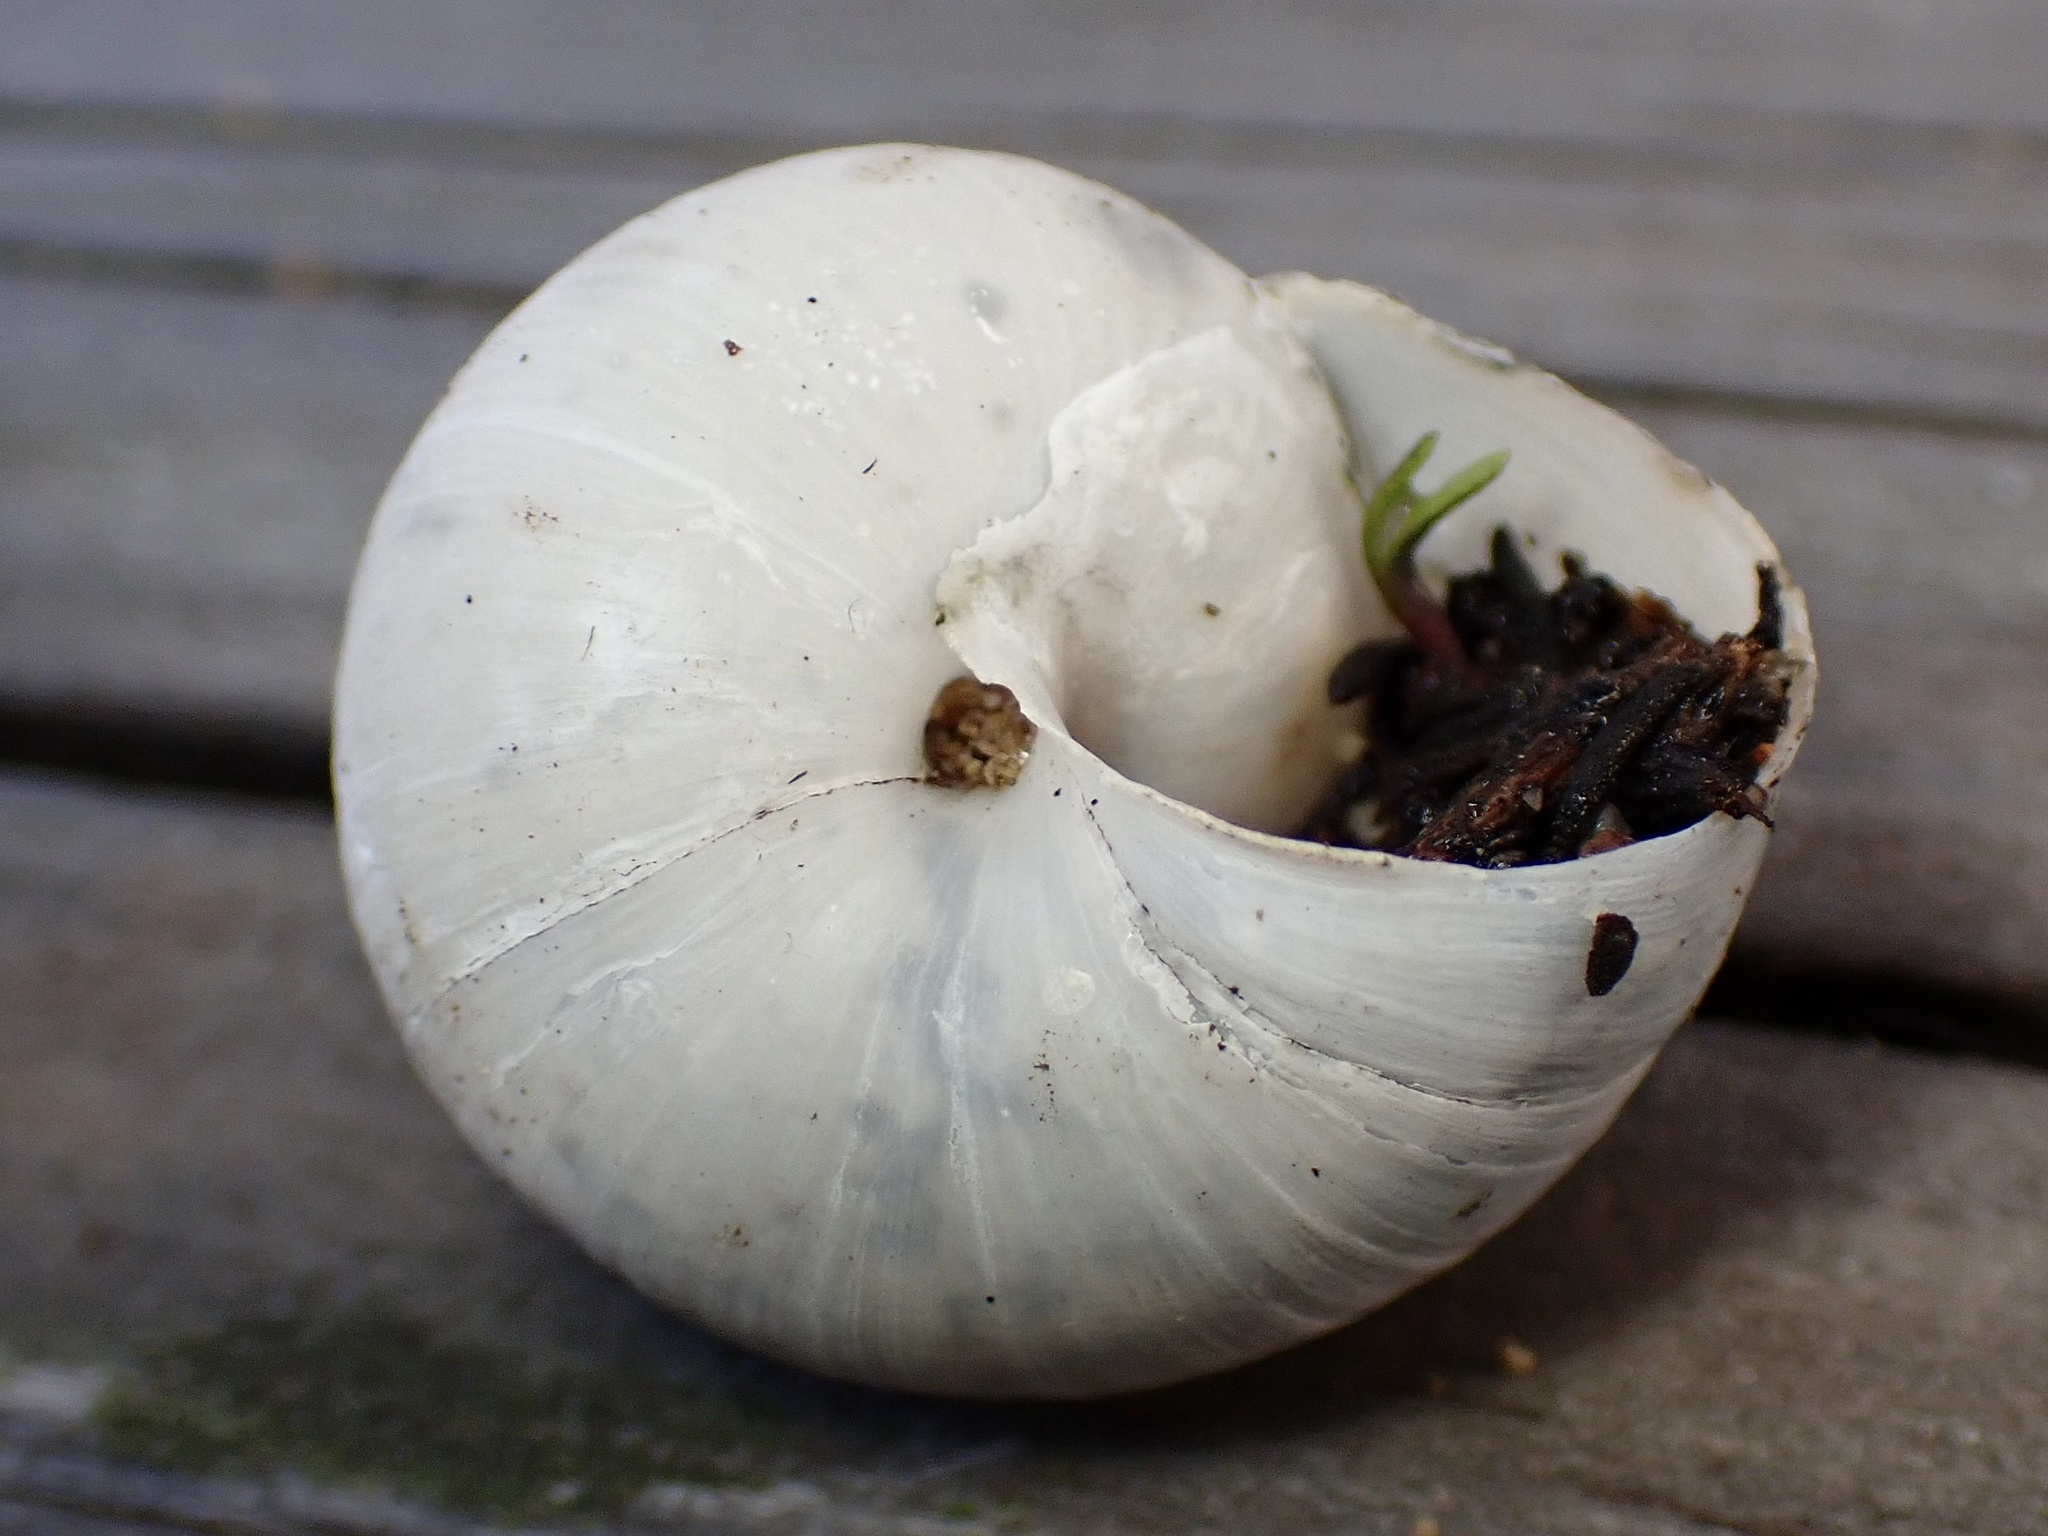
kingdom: Animalia
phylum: Mollusca
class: Gastropoda
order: Stylommatophora
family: Xanthonychidae
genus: Helminthoglypta
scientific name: Helminthoglypta fieldi
